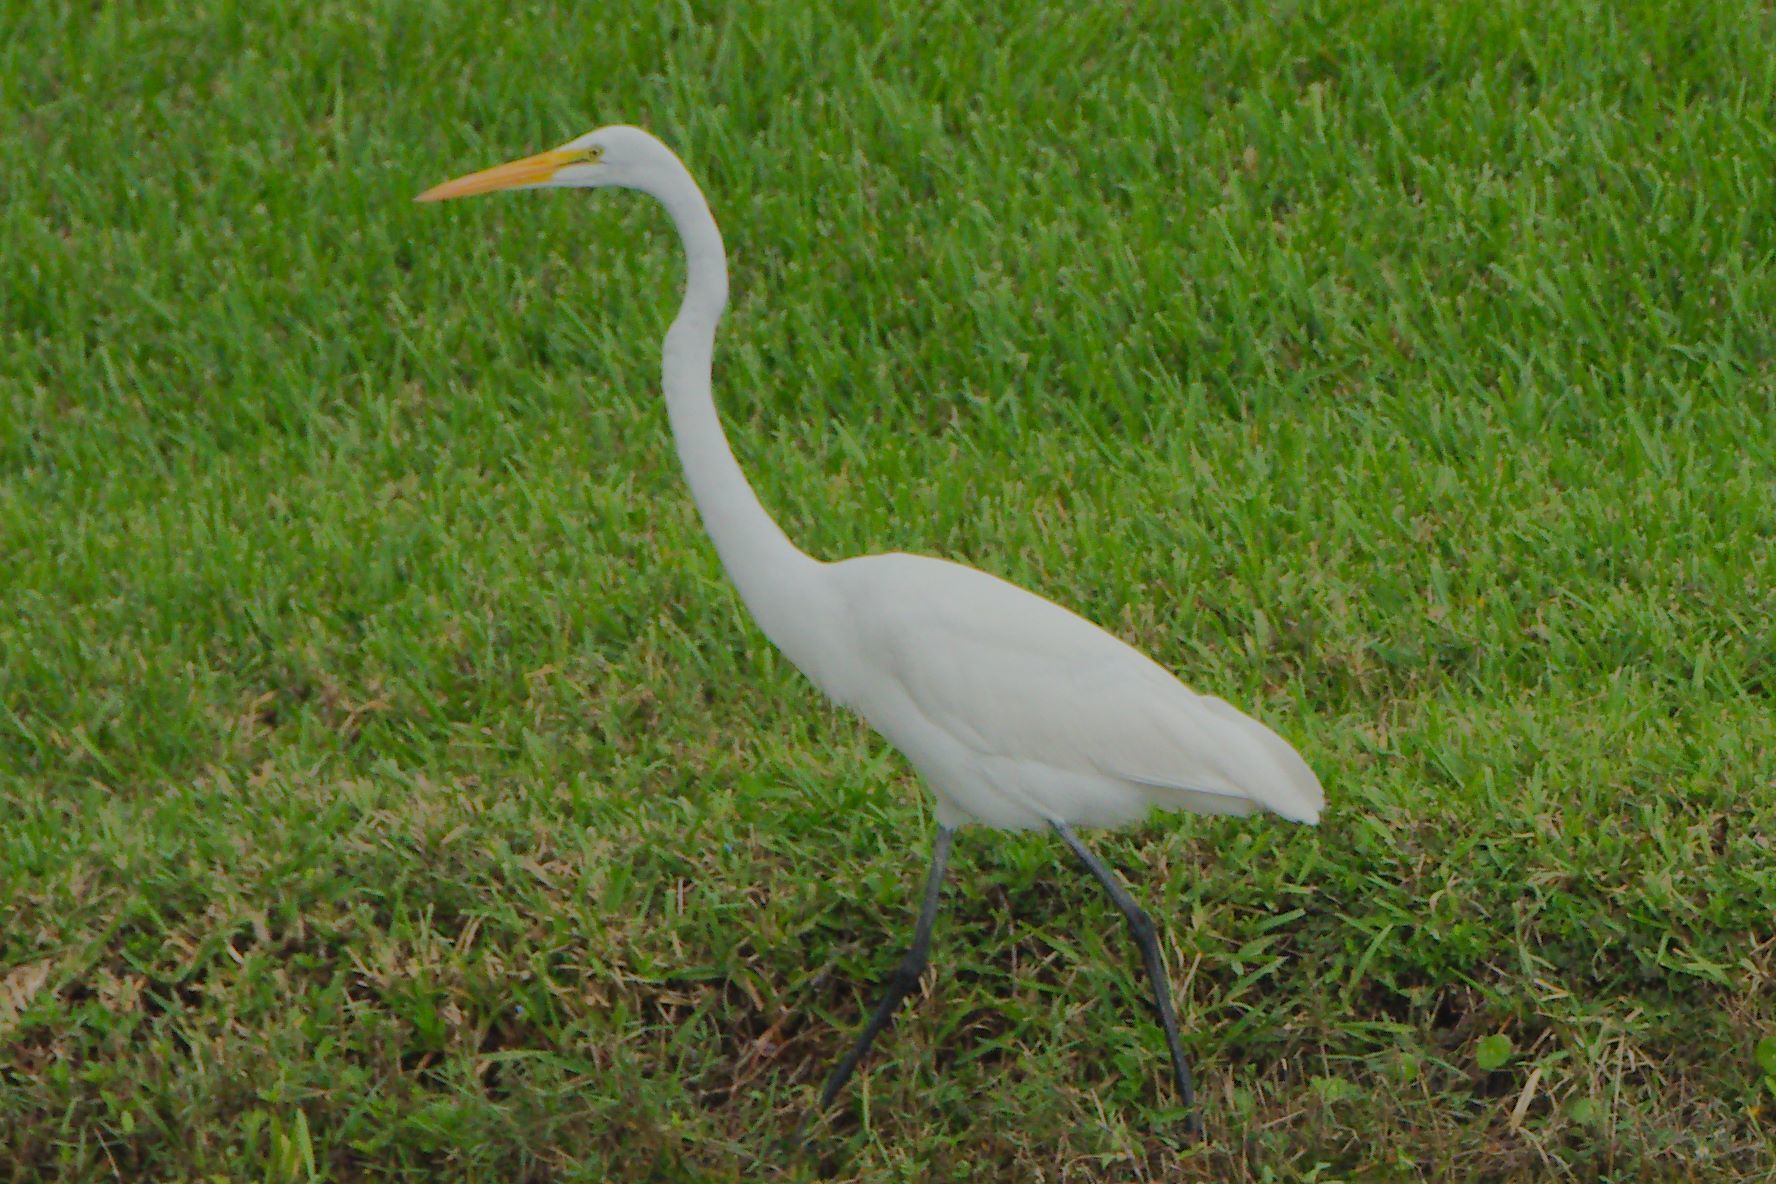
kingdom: Animalia
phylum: Chordata
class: Aves
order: Pelecaniformes
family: Ardeidae
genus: Ardea
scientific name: Ardea alba
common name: Great egret
